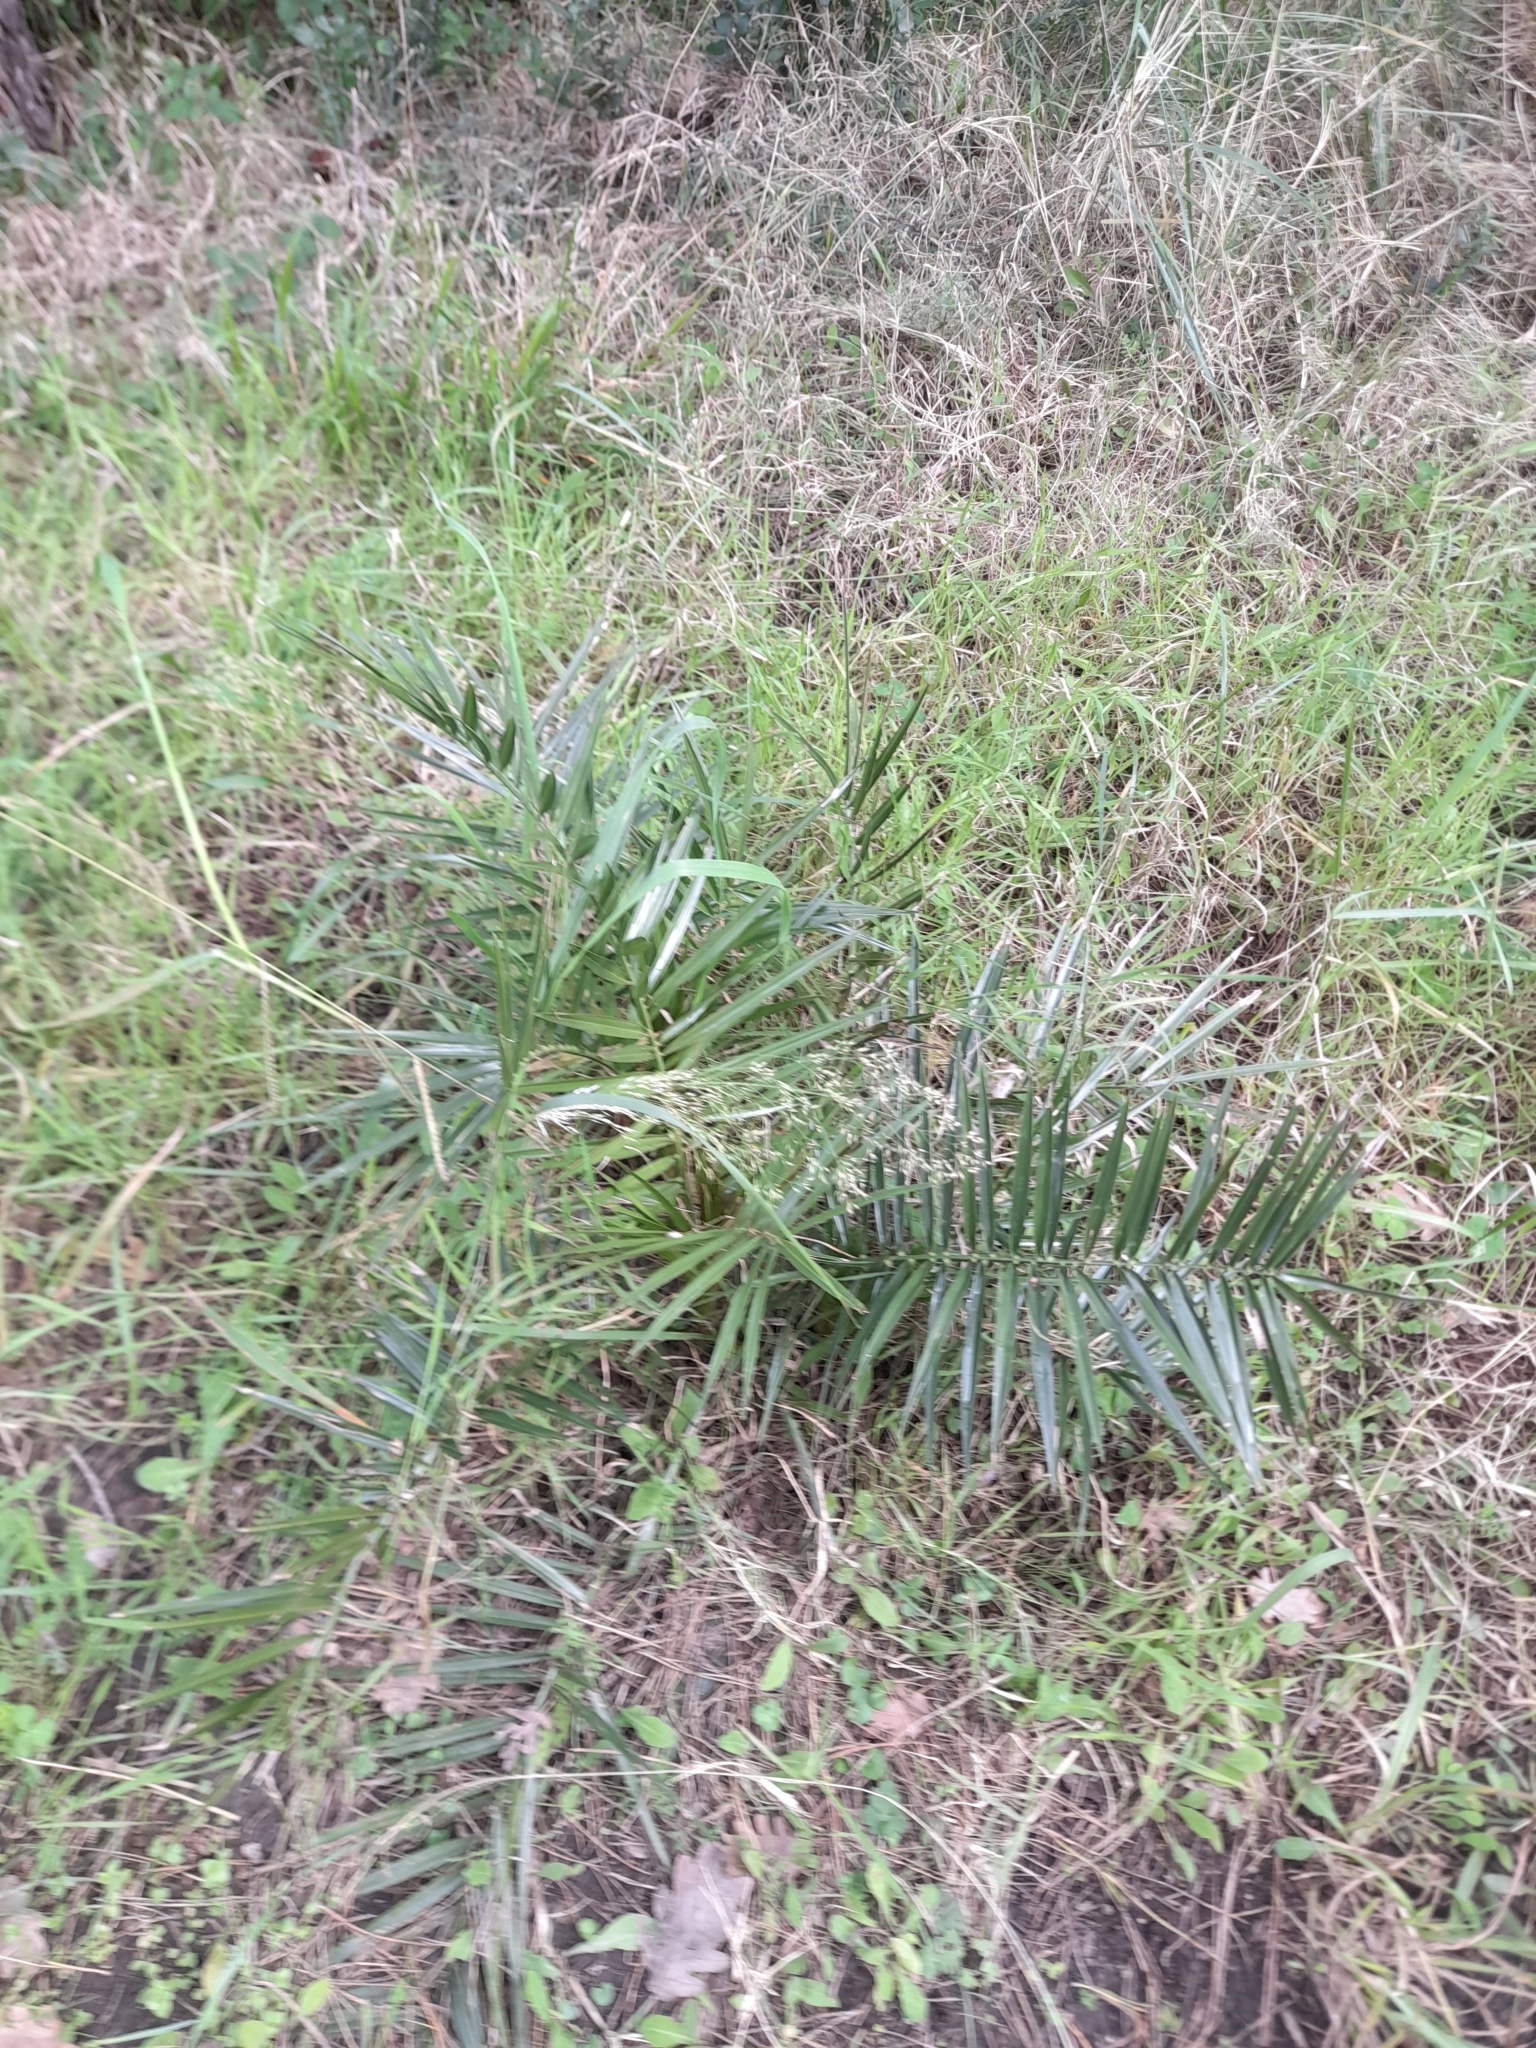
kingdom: Plantae
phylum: Tracheophyta
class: Liliopsida
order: Arecales
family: Arecaceae
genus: Phoenix
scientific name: Phoenix canariensis
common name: Canary island date palm
